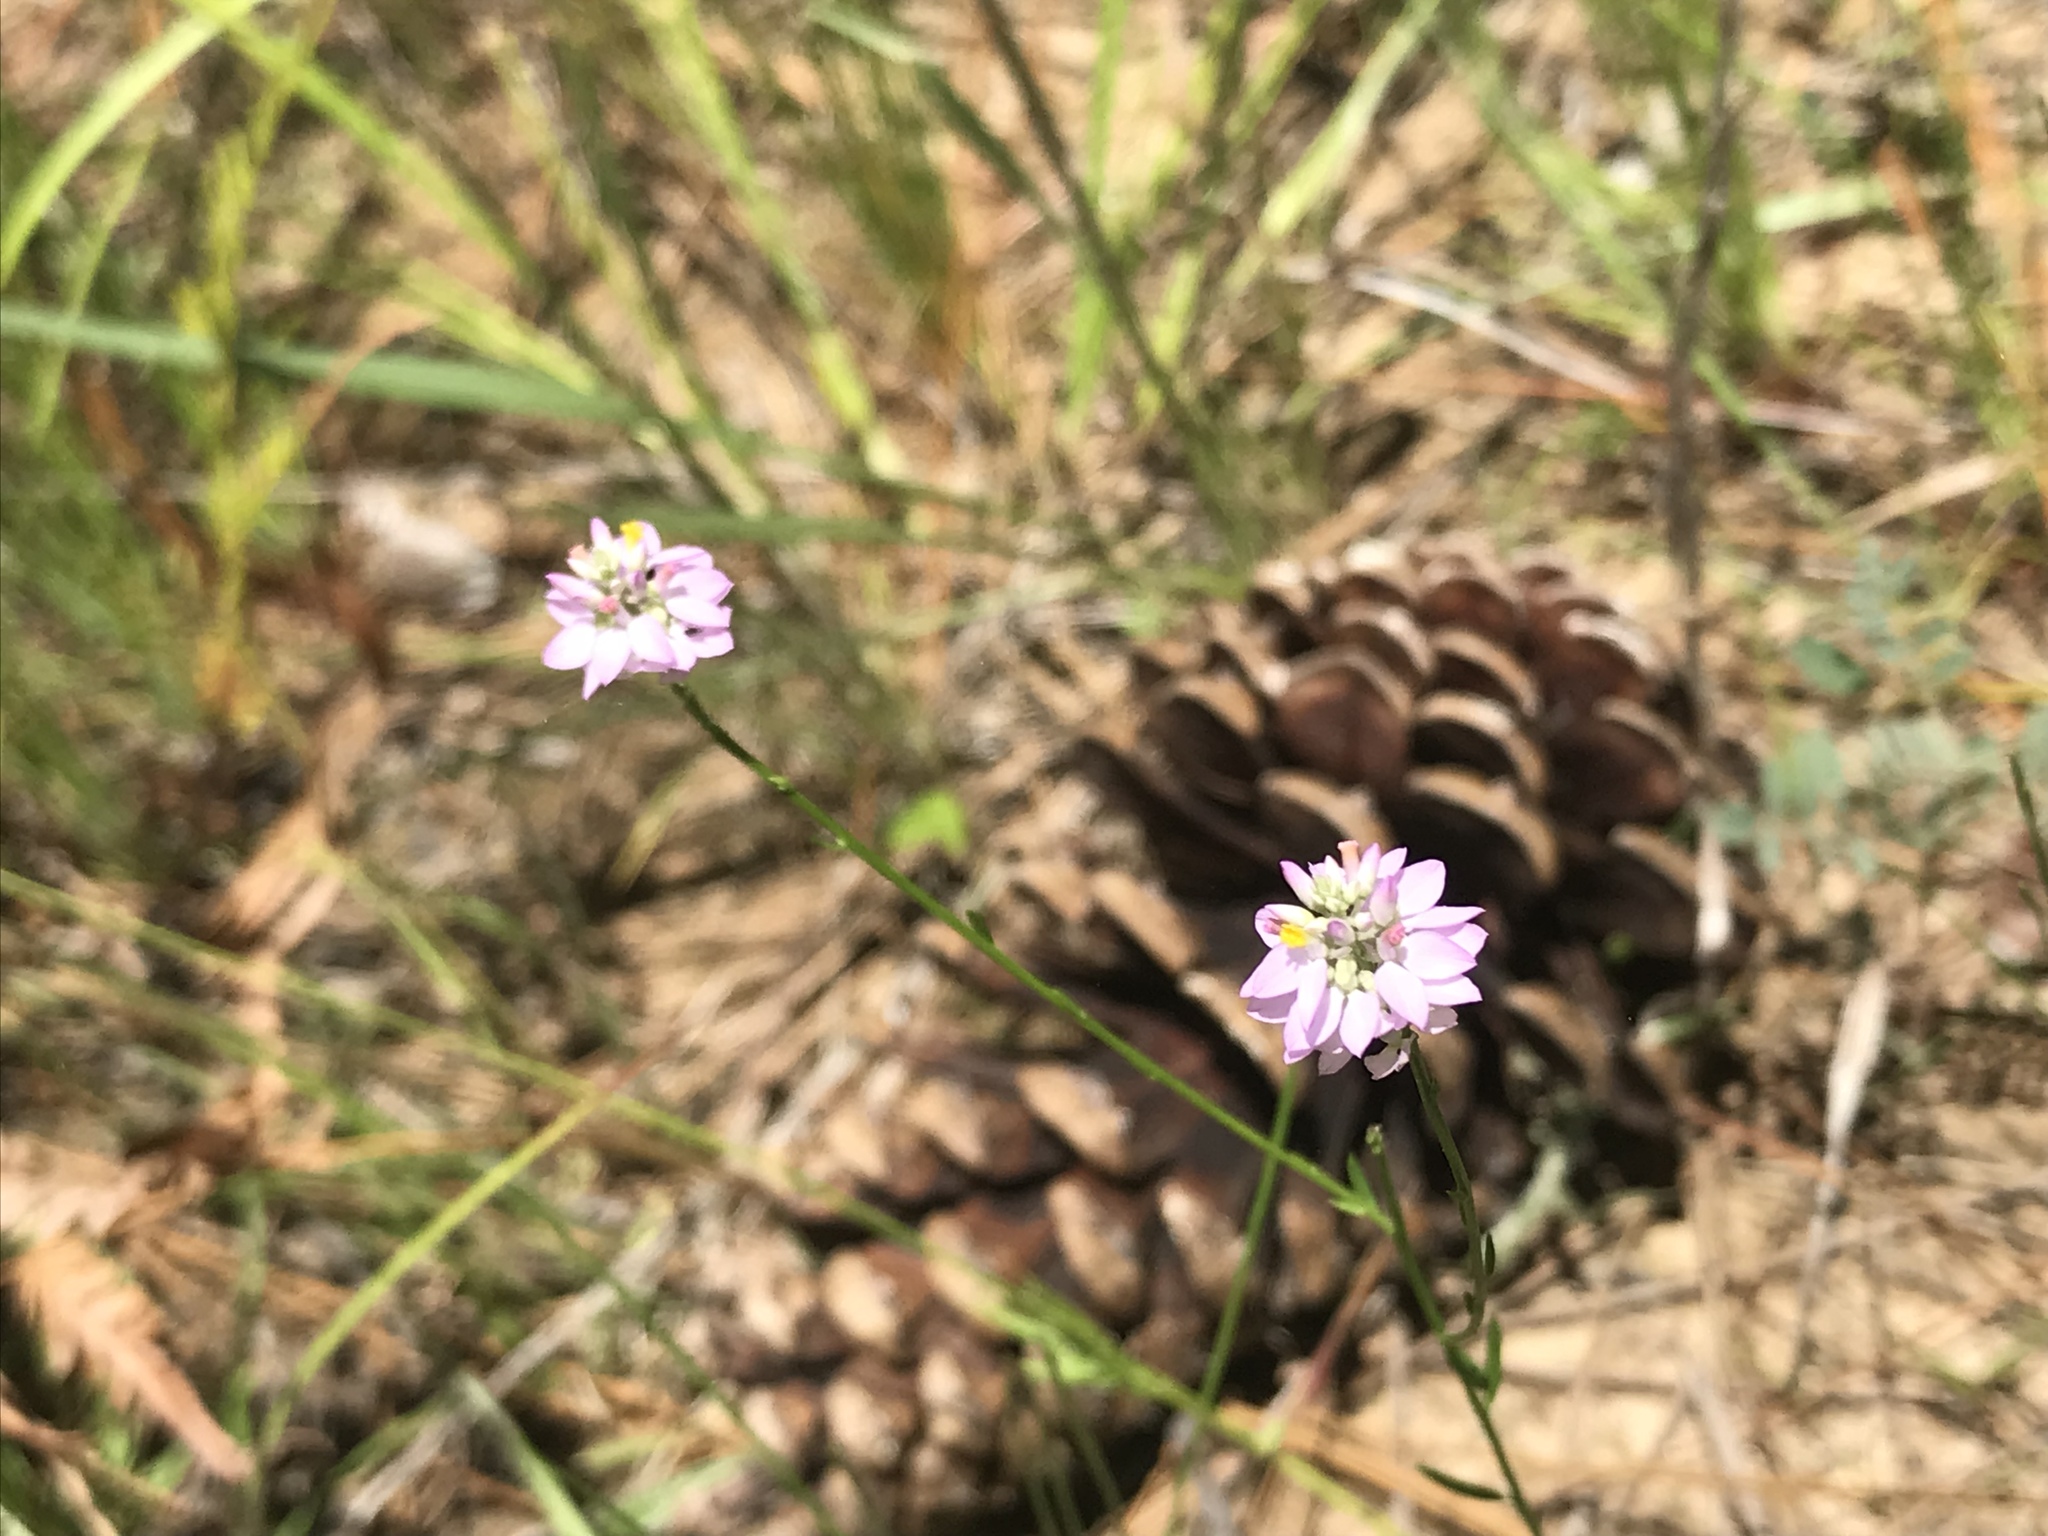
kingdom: Plantae
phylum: Tracheophyta
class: Magnoliopsida
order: Fabales
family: Polygalaceae
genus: Polygala
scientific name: Polygala mariana
